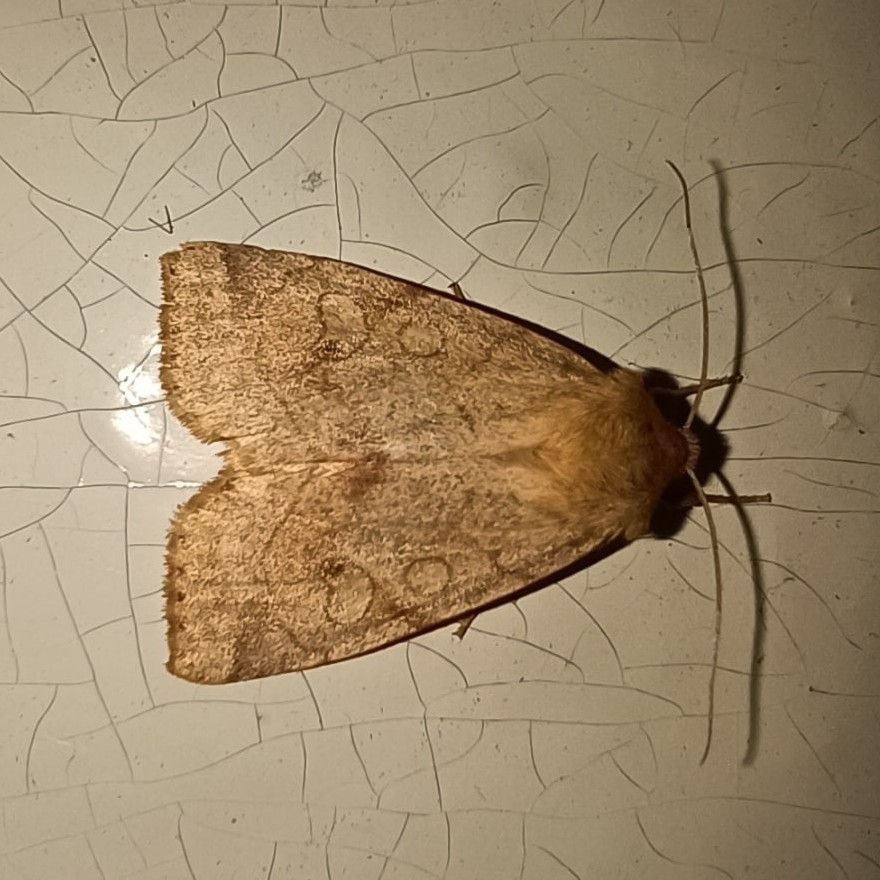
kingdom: Animalia
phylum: Arthropoda
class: Insecta
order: Lepidoptera
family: Noctuidae
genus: Enargia
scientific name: Enargia paleacea
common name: Angle-striped sallow
